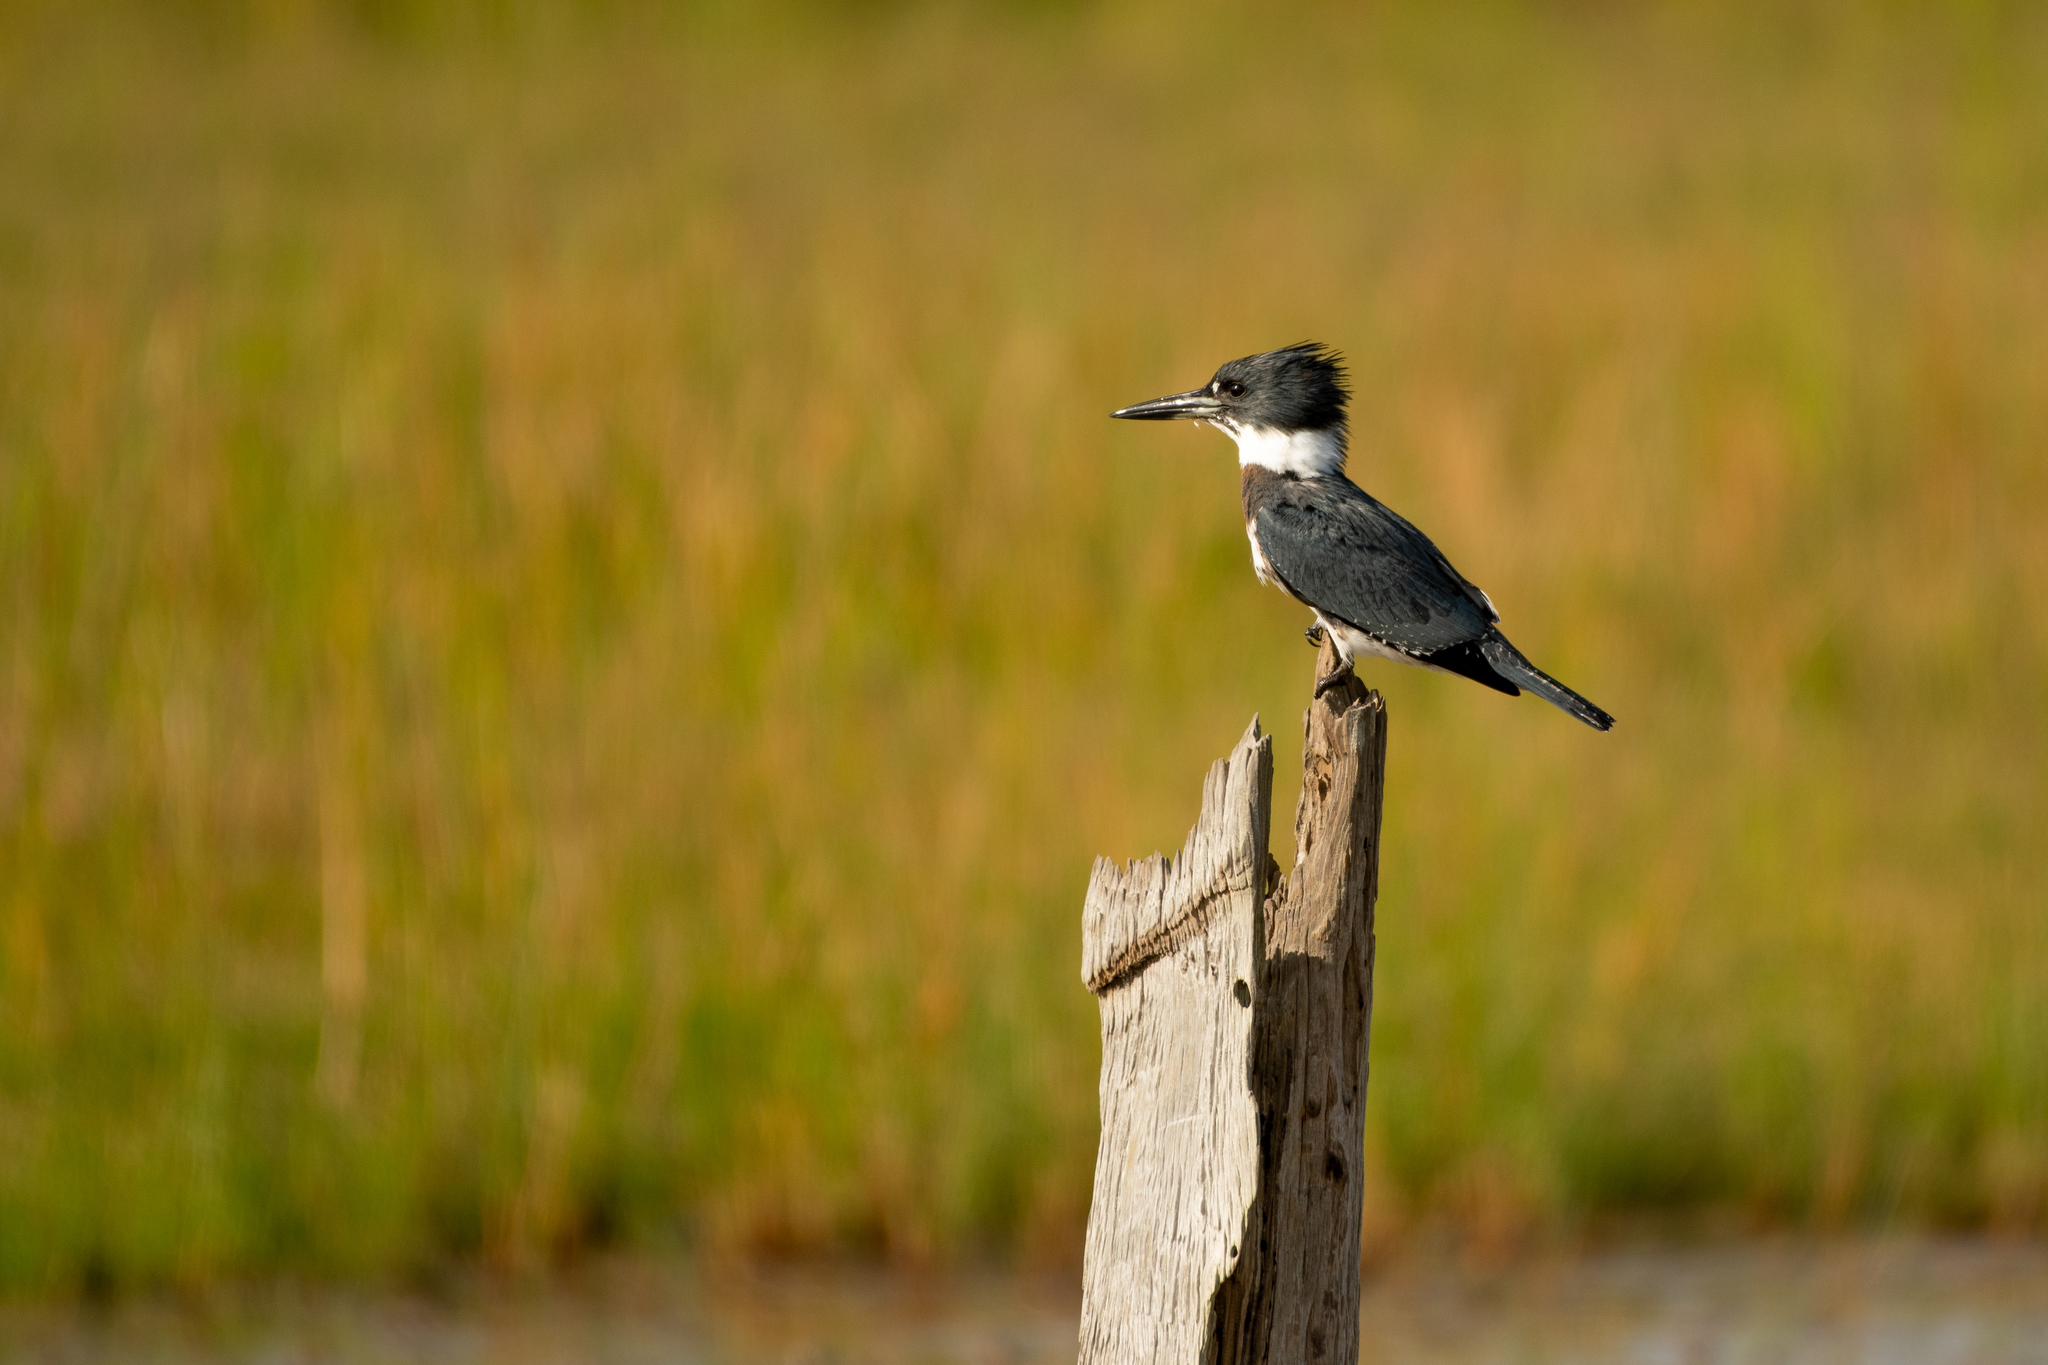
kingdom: Animalia
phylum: Chordata
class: Aves
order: Coraciiformes
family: Alcedinidae
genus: Megaceryle
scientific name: Megaceryle alcyon
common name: Belted kingfisher
